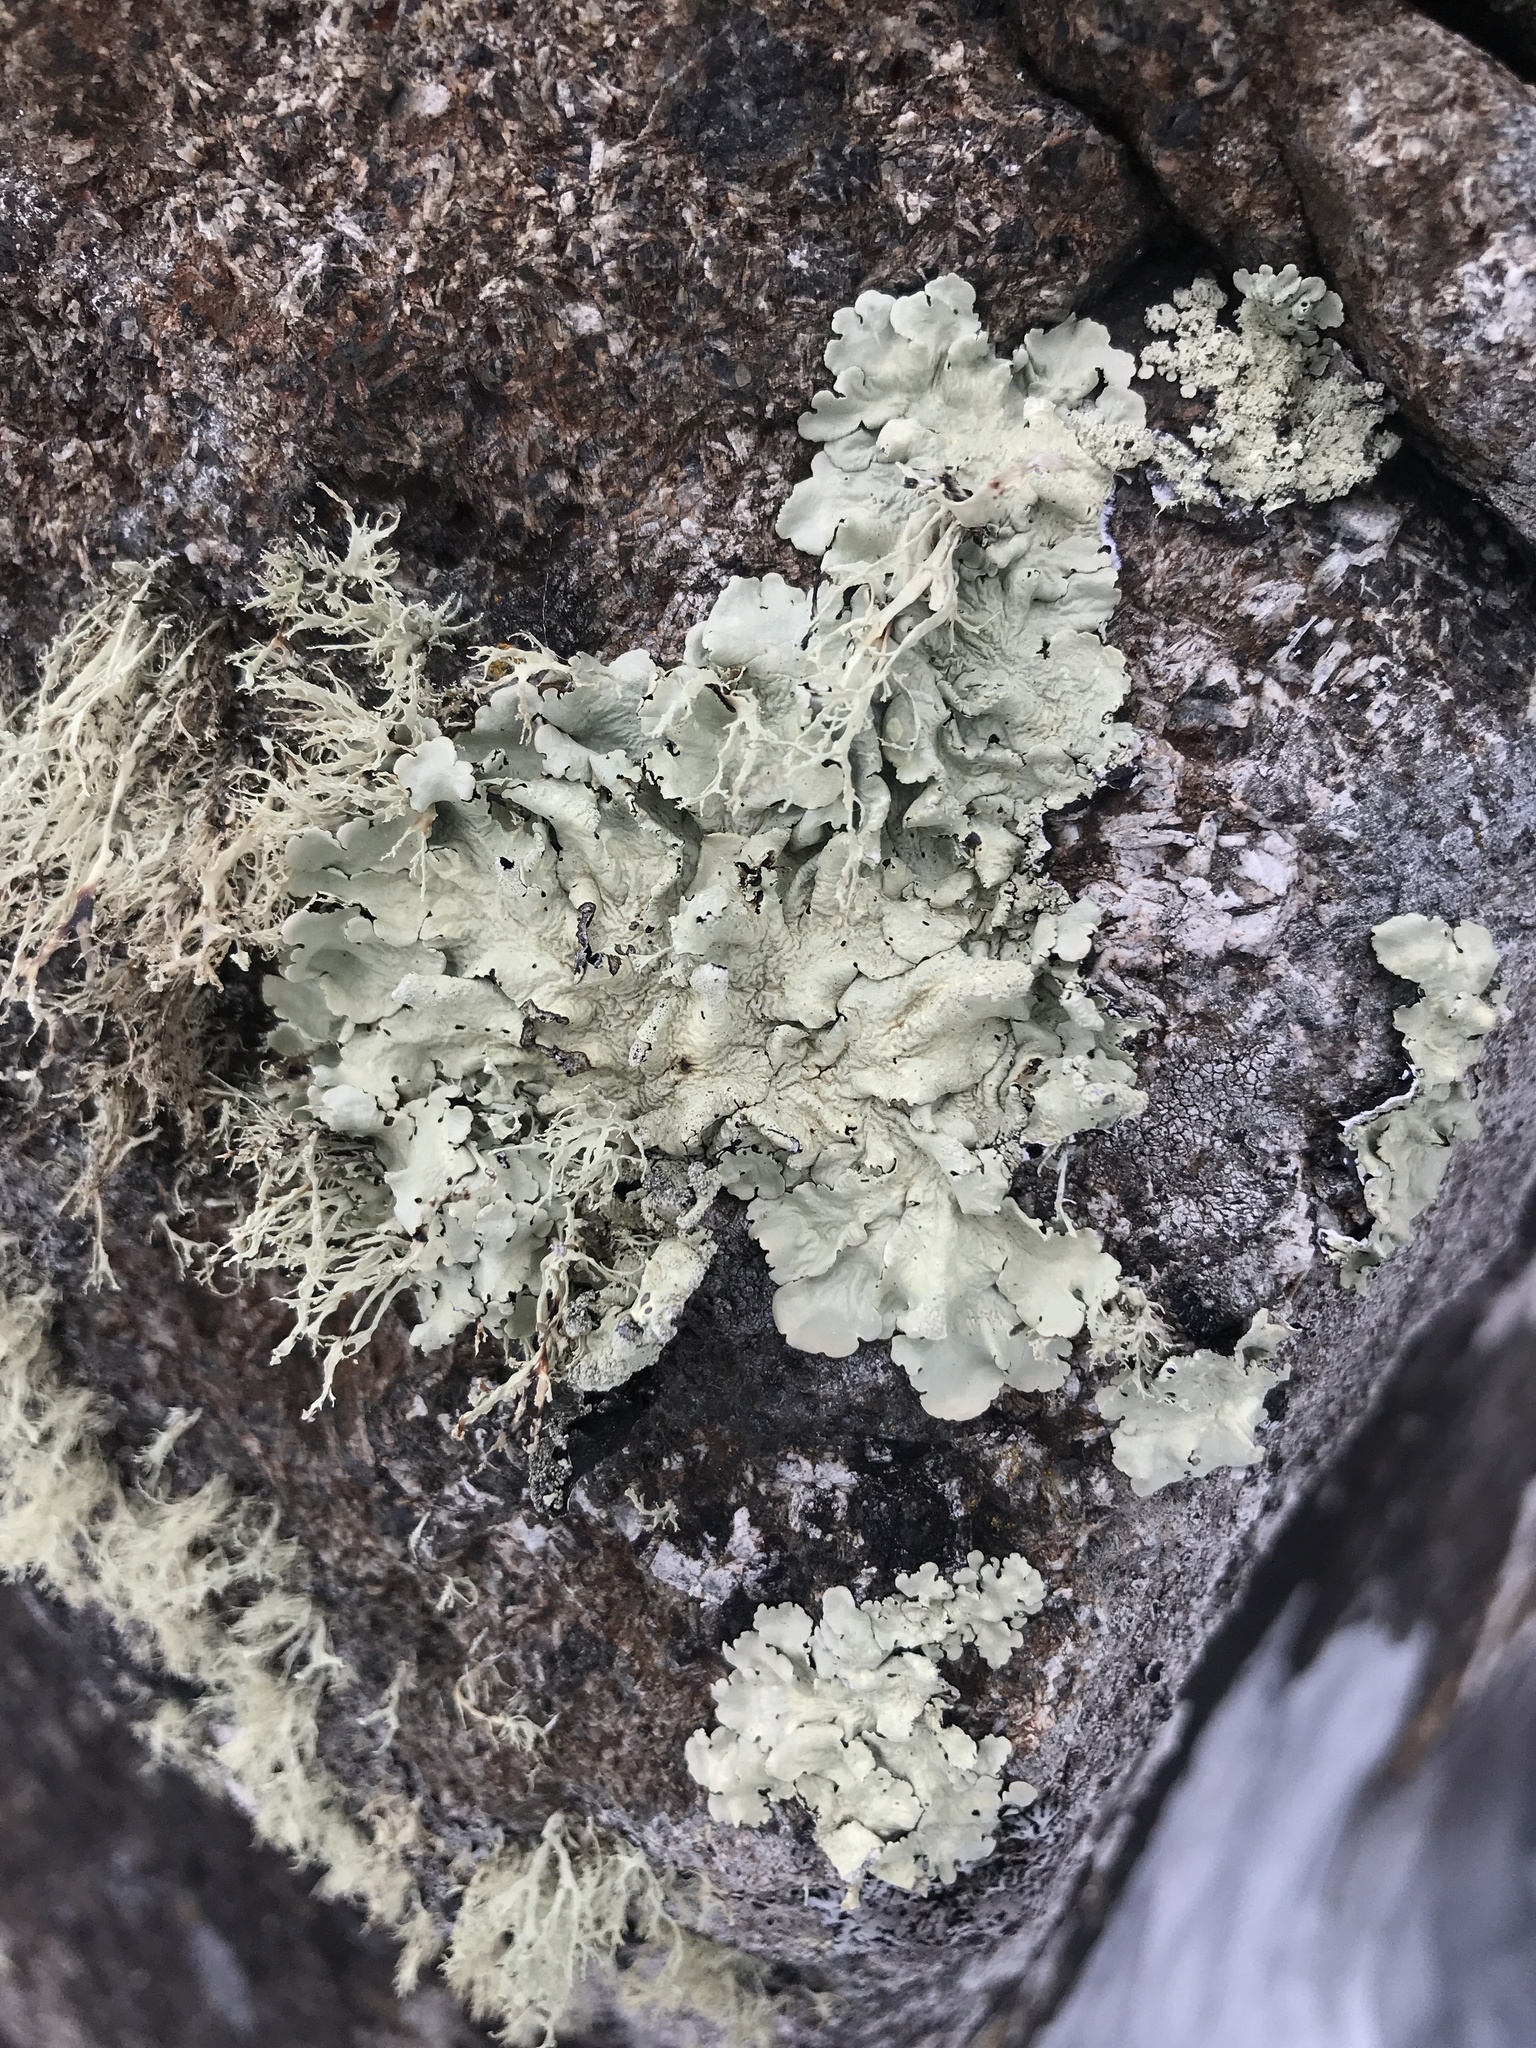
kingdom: Fungi
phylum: Ascomycota
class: Lecanoromycetes
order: Lecanorales
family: Parmeliaceae
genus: Flavoparmelia
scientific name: Flavoparmelia caperata
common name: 40-mile per hour lichen
